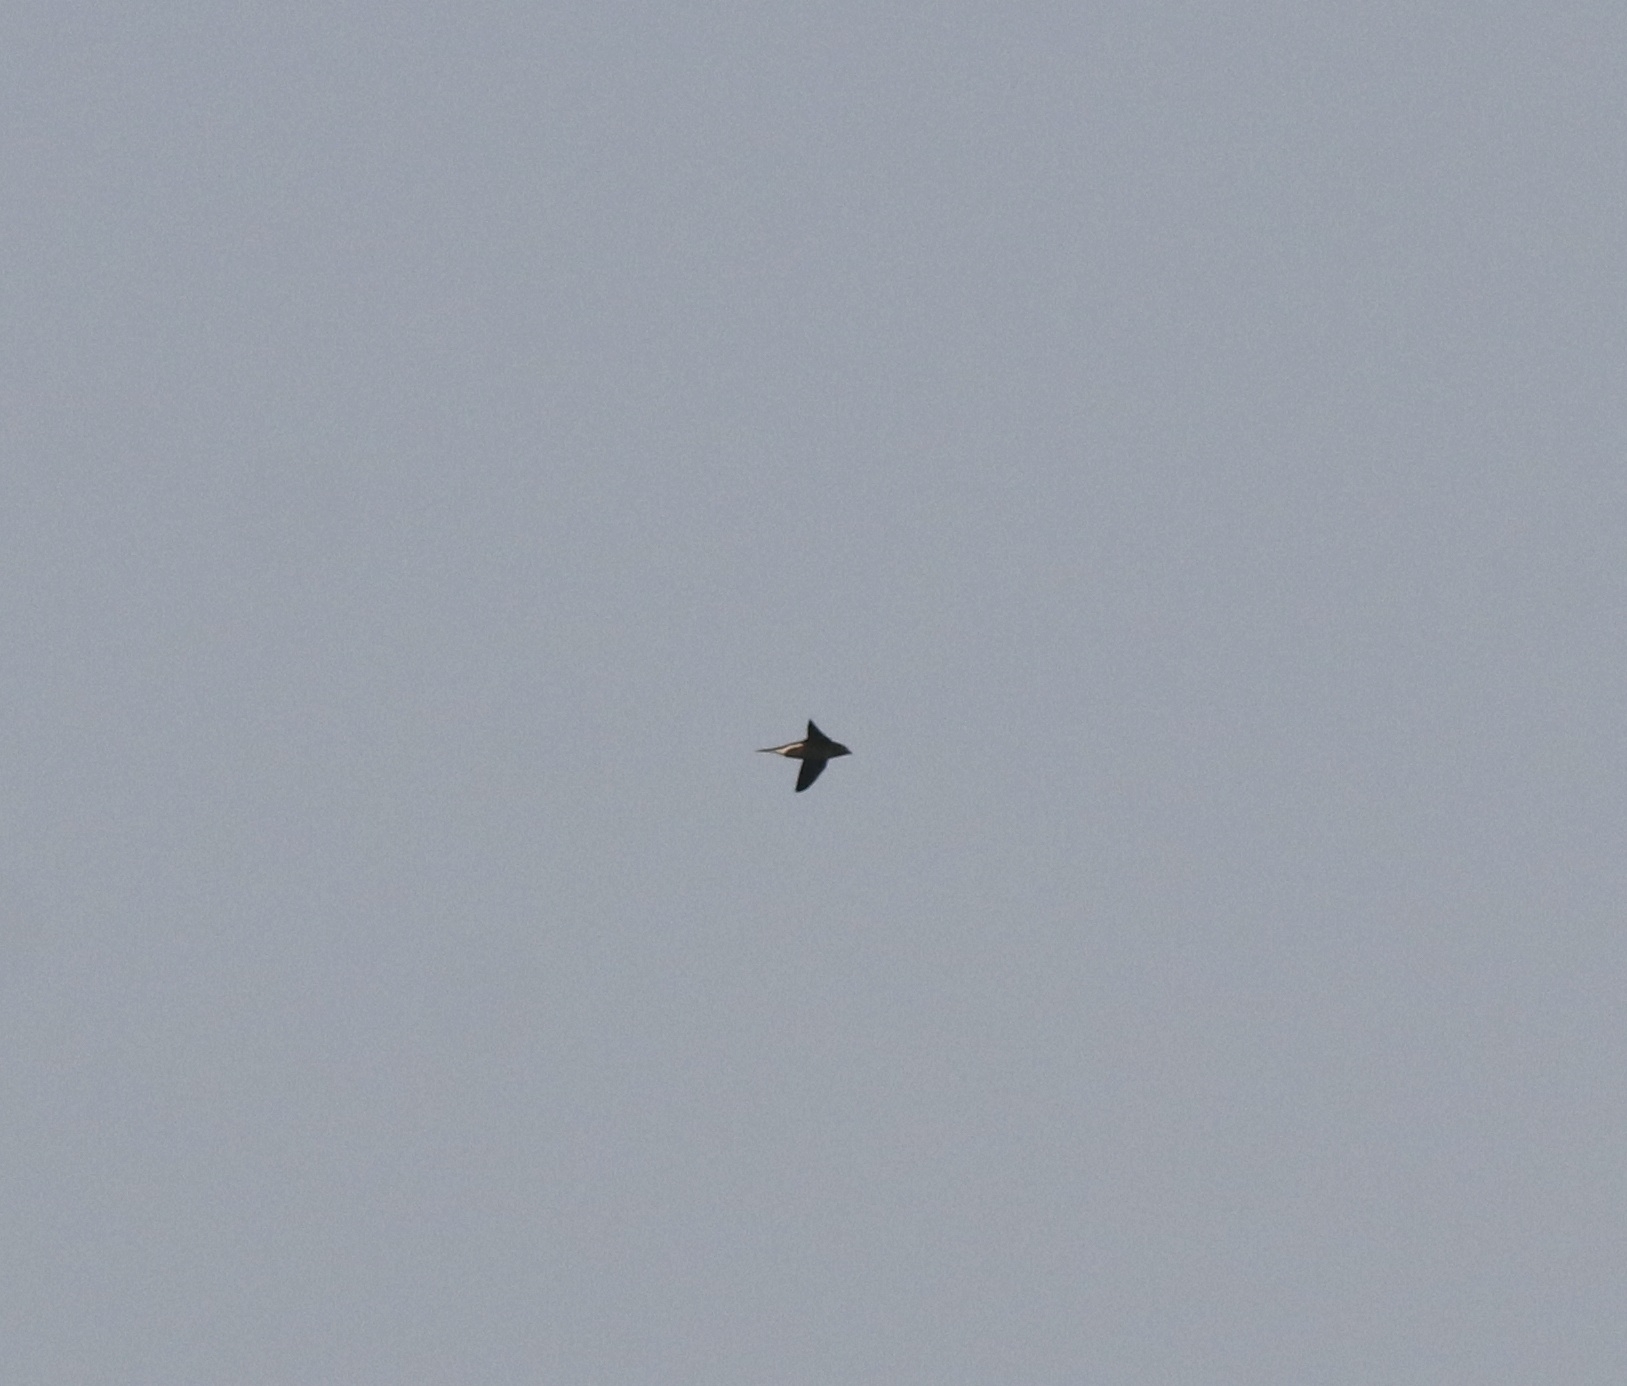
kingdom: Animalia
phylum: Chordata
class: Aves
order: Apodiformes
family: Apodidae
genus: Hirundapus
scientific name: Hirundapus giganteus
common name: Brown-backed needletail
